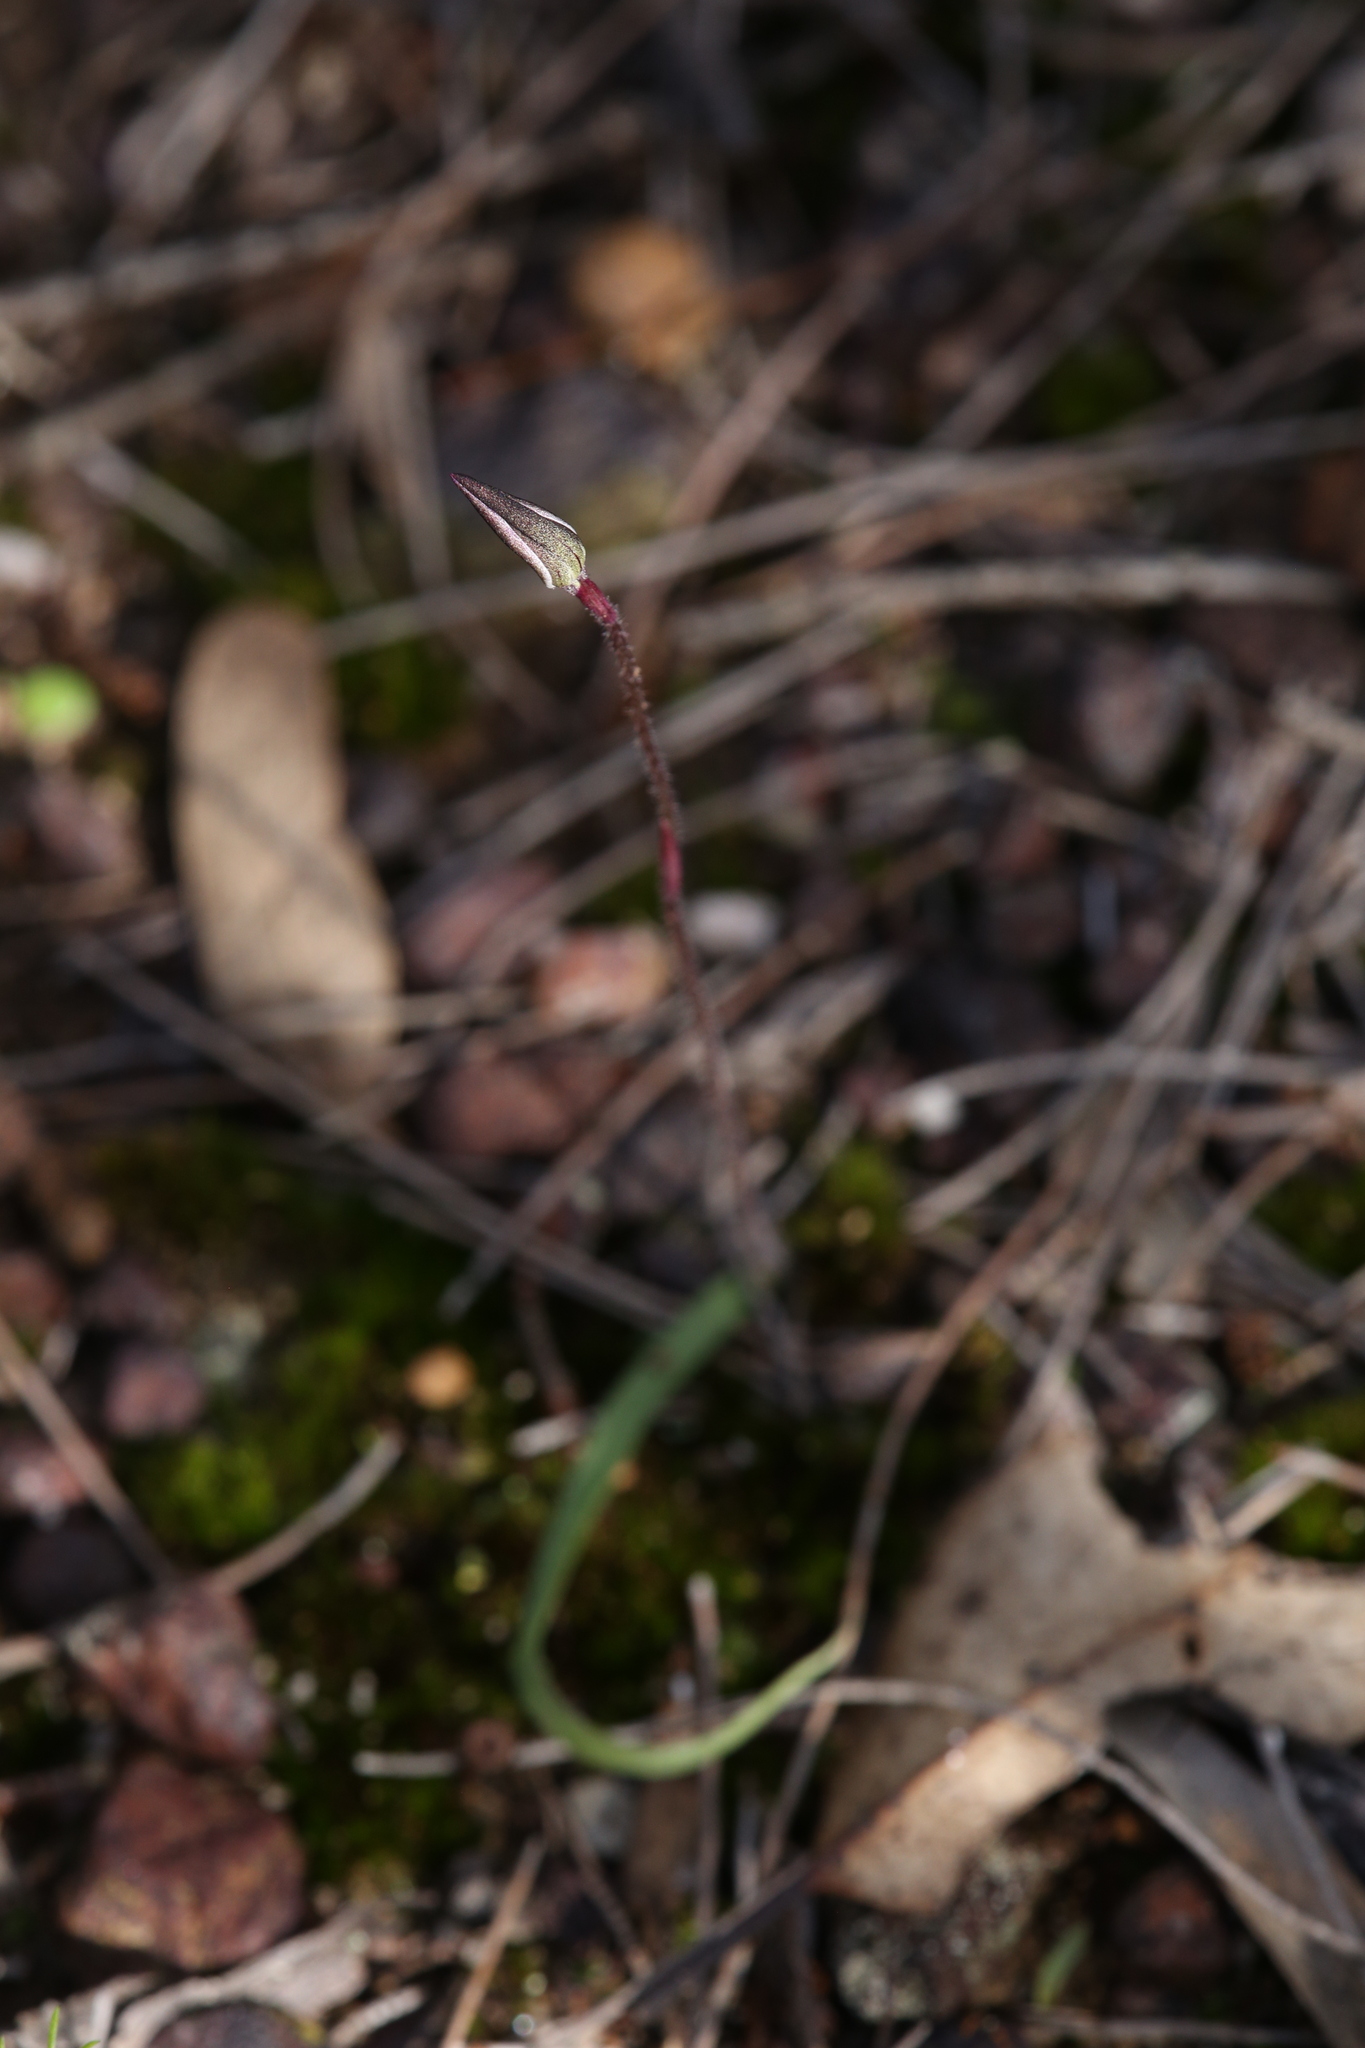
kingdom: Plantae
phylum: Tracheophyta
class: Liliopsida
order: Asparagales
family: Orchidaceae
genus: Caladenia
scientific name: Caladenia saccharata
